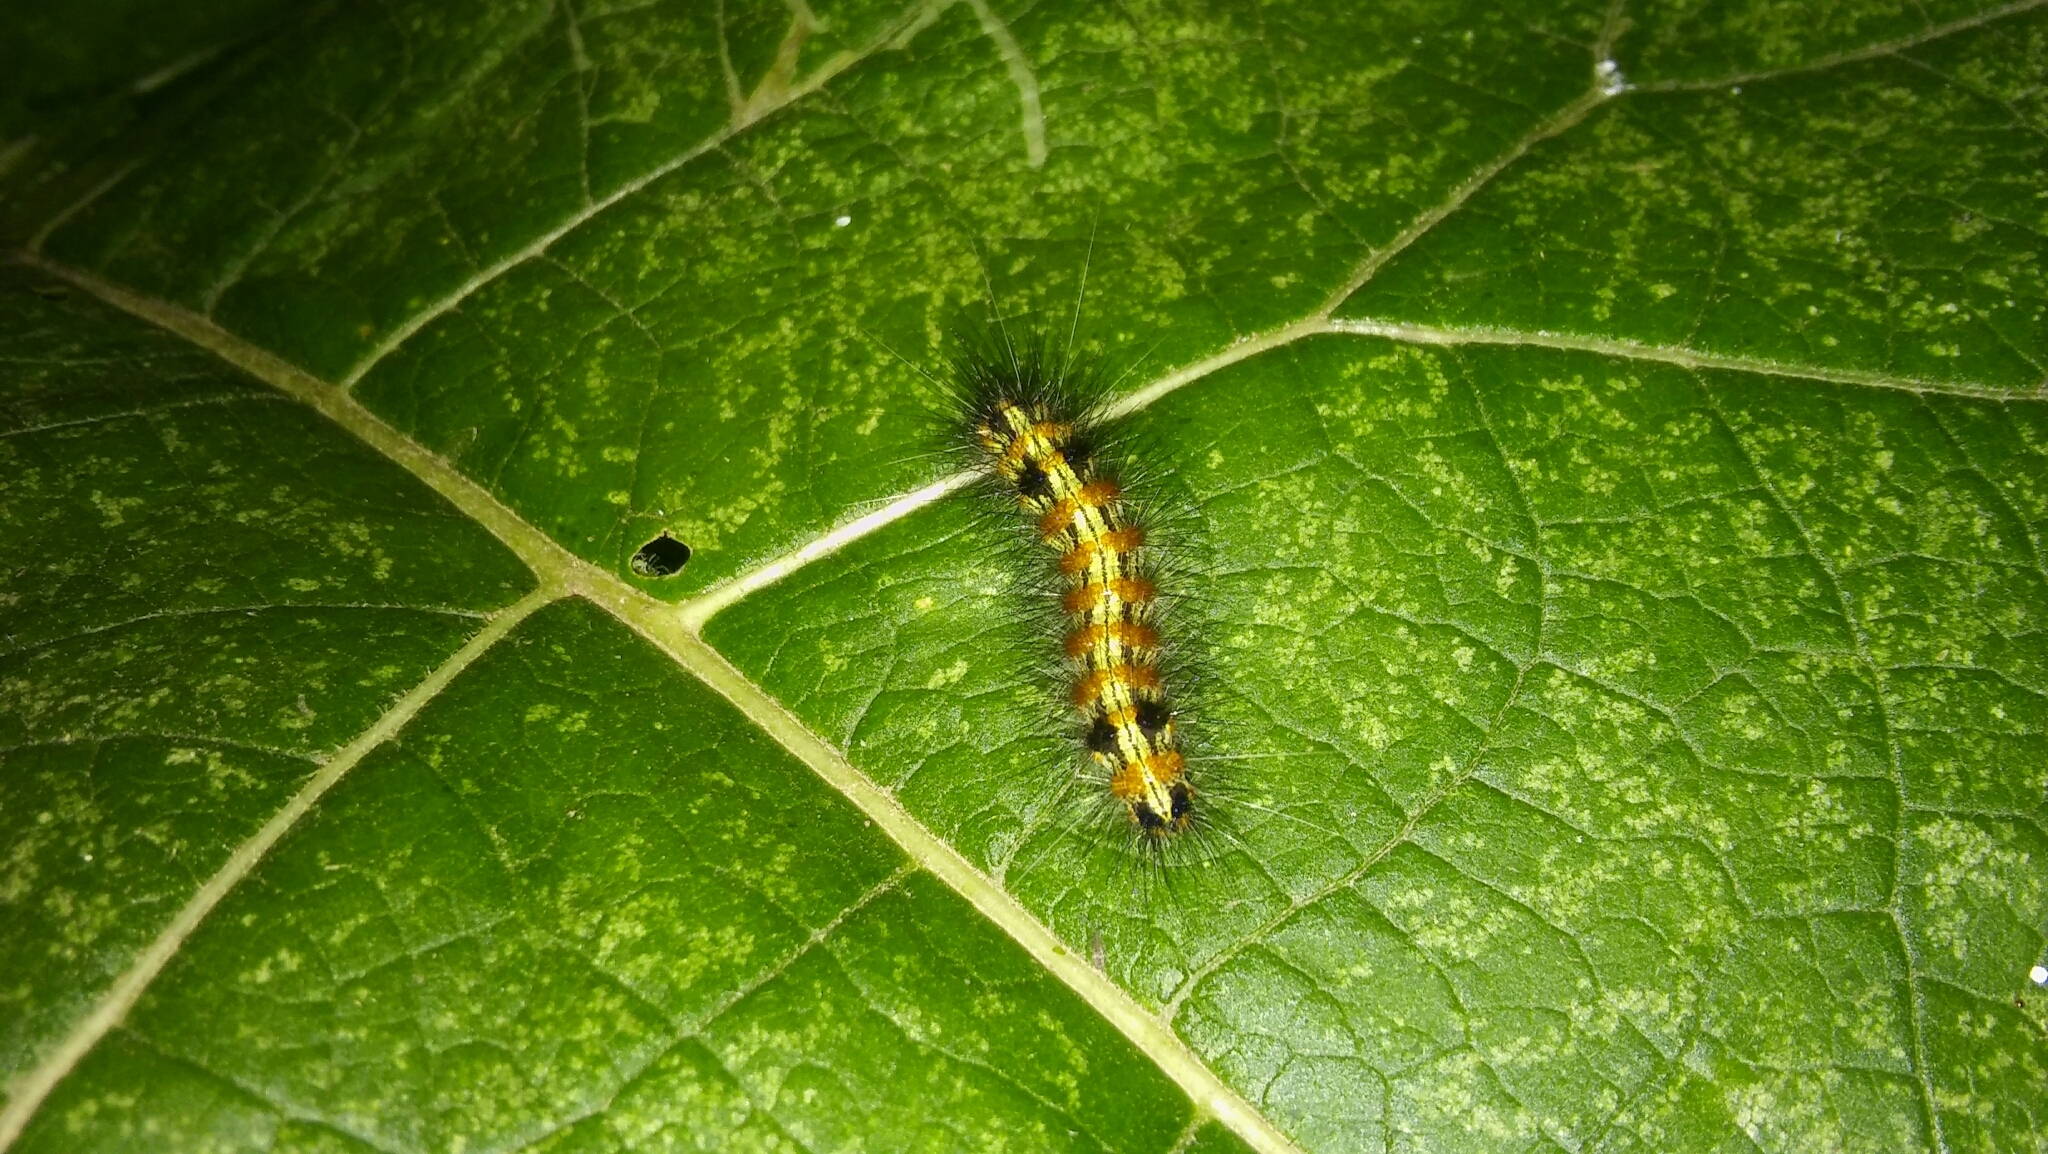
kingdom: Animalia
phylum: Arthropoda
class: Insecta
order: Lepidoptera
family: Erebidae
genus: Dysschema
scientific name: Dysschema sacrifica
